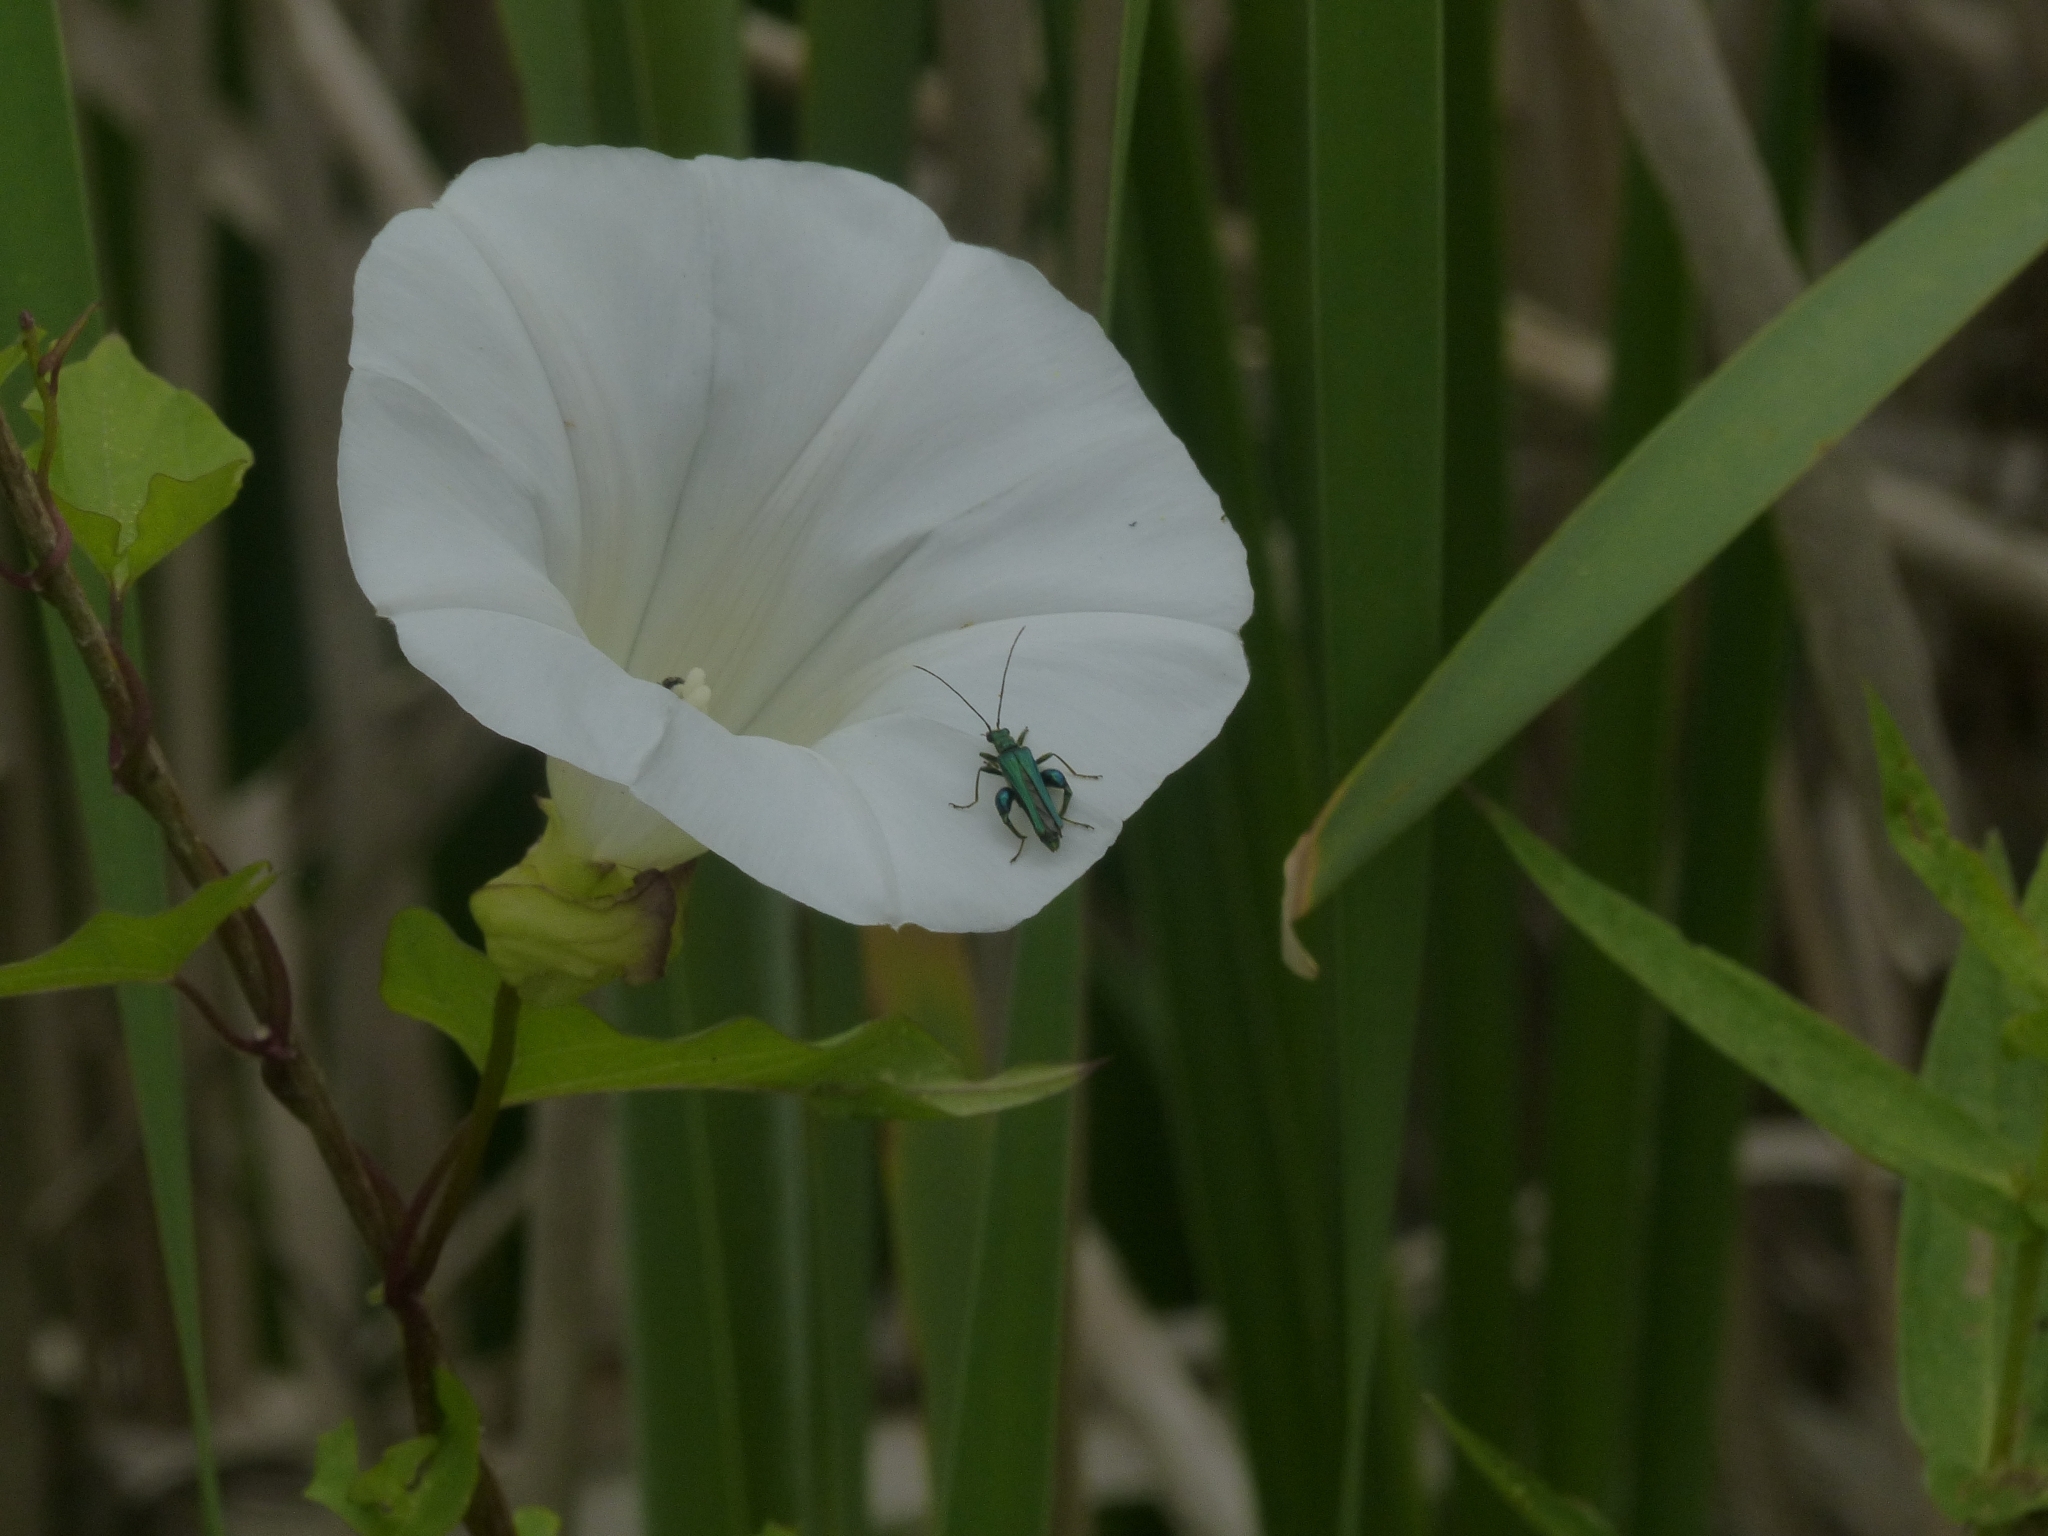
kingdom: Animalia
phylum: Arthropoda
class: Insecta
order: Coleoptera
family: Oedemeridae
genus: Oedemera
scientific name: Oedemera nobilis
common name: Swollen-thighed beetle
